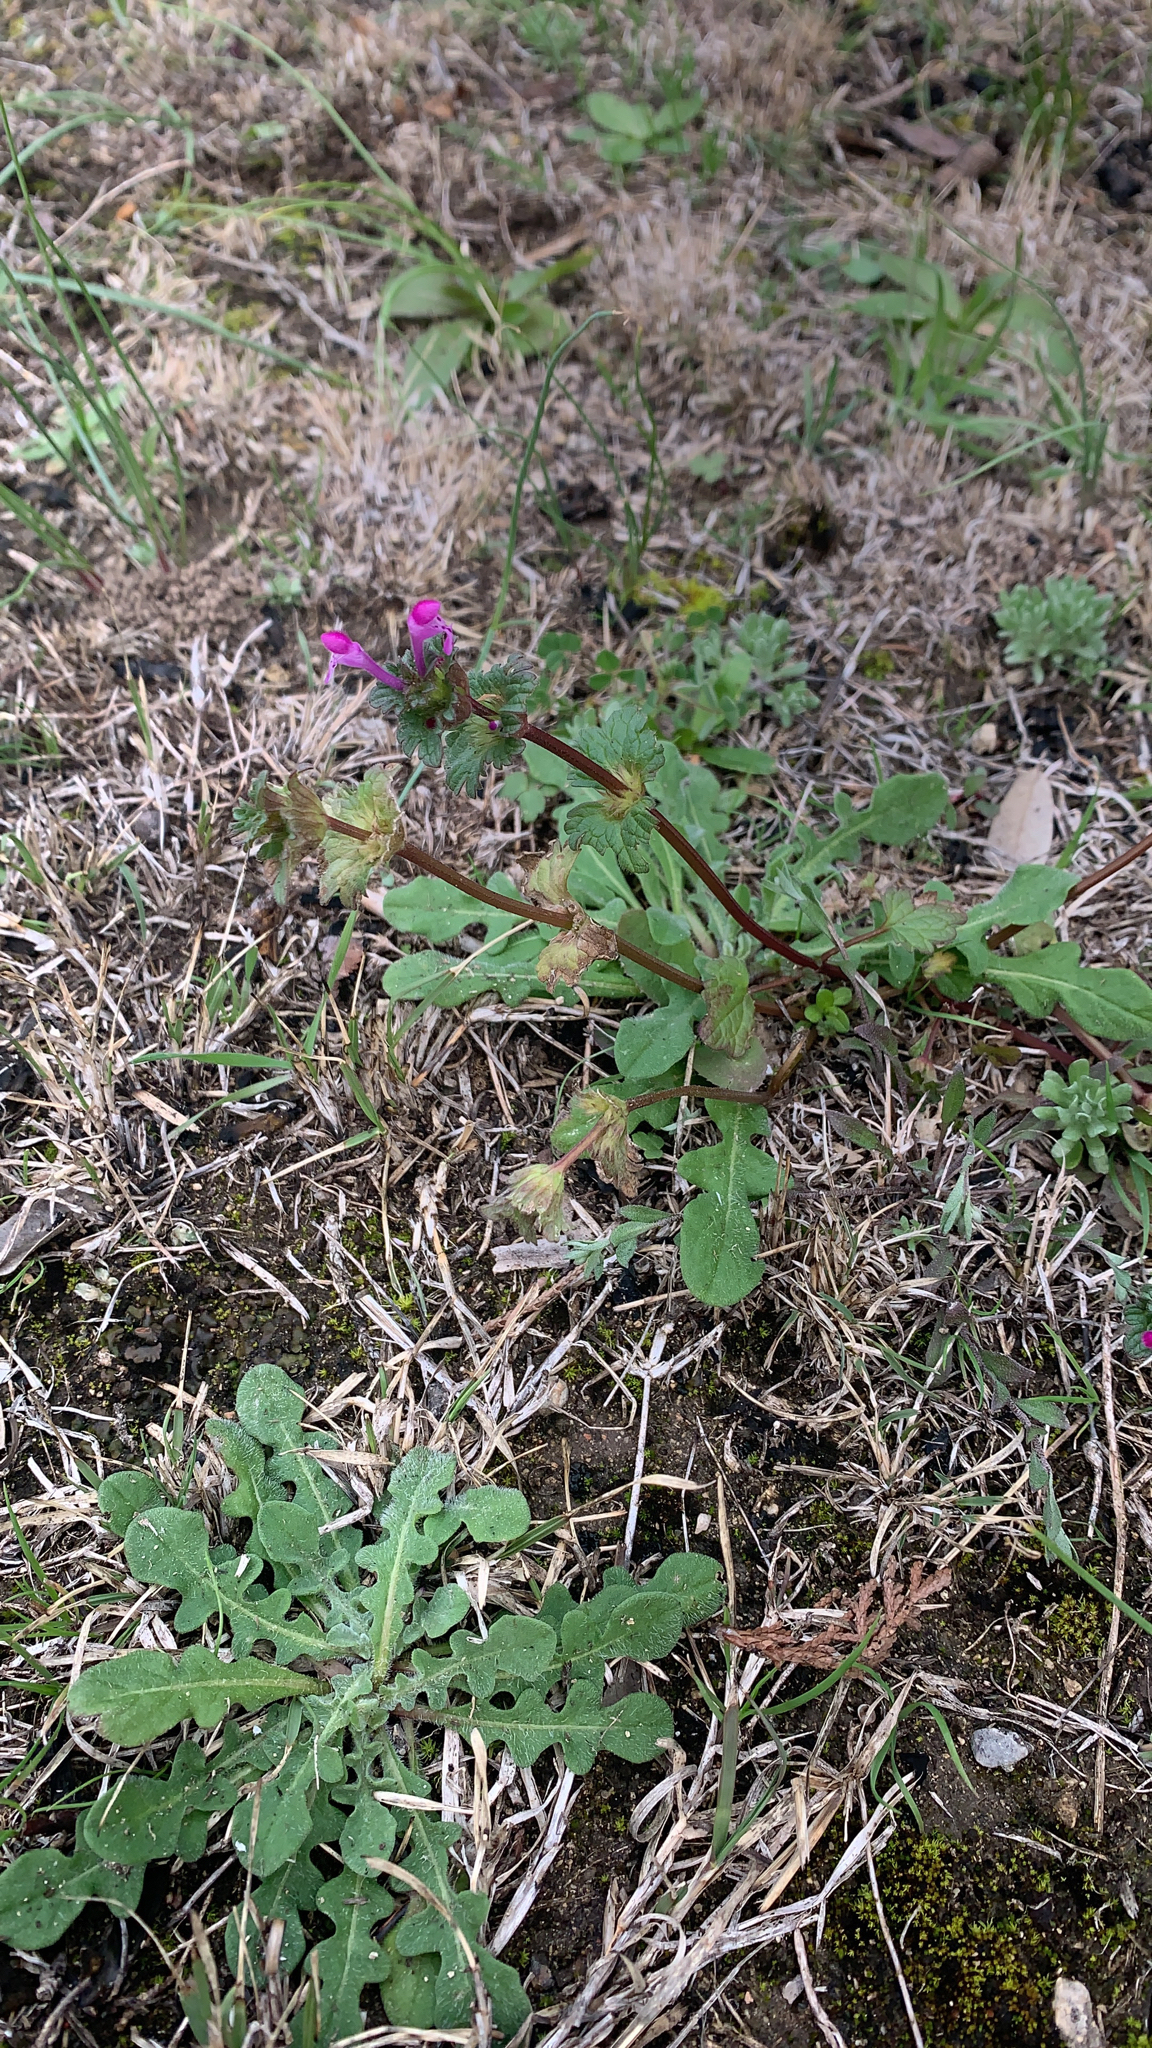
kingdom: Plantae
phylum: Tracheophyta
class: Magnoliopsida
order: Lamiales
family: Lamiaceae
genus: Lamium
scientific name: Lamium amplexicaule
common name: Henbit dead-nettle
